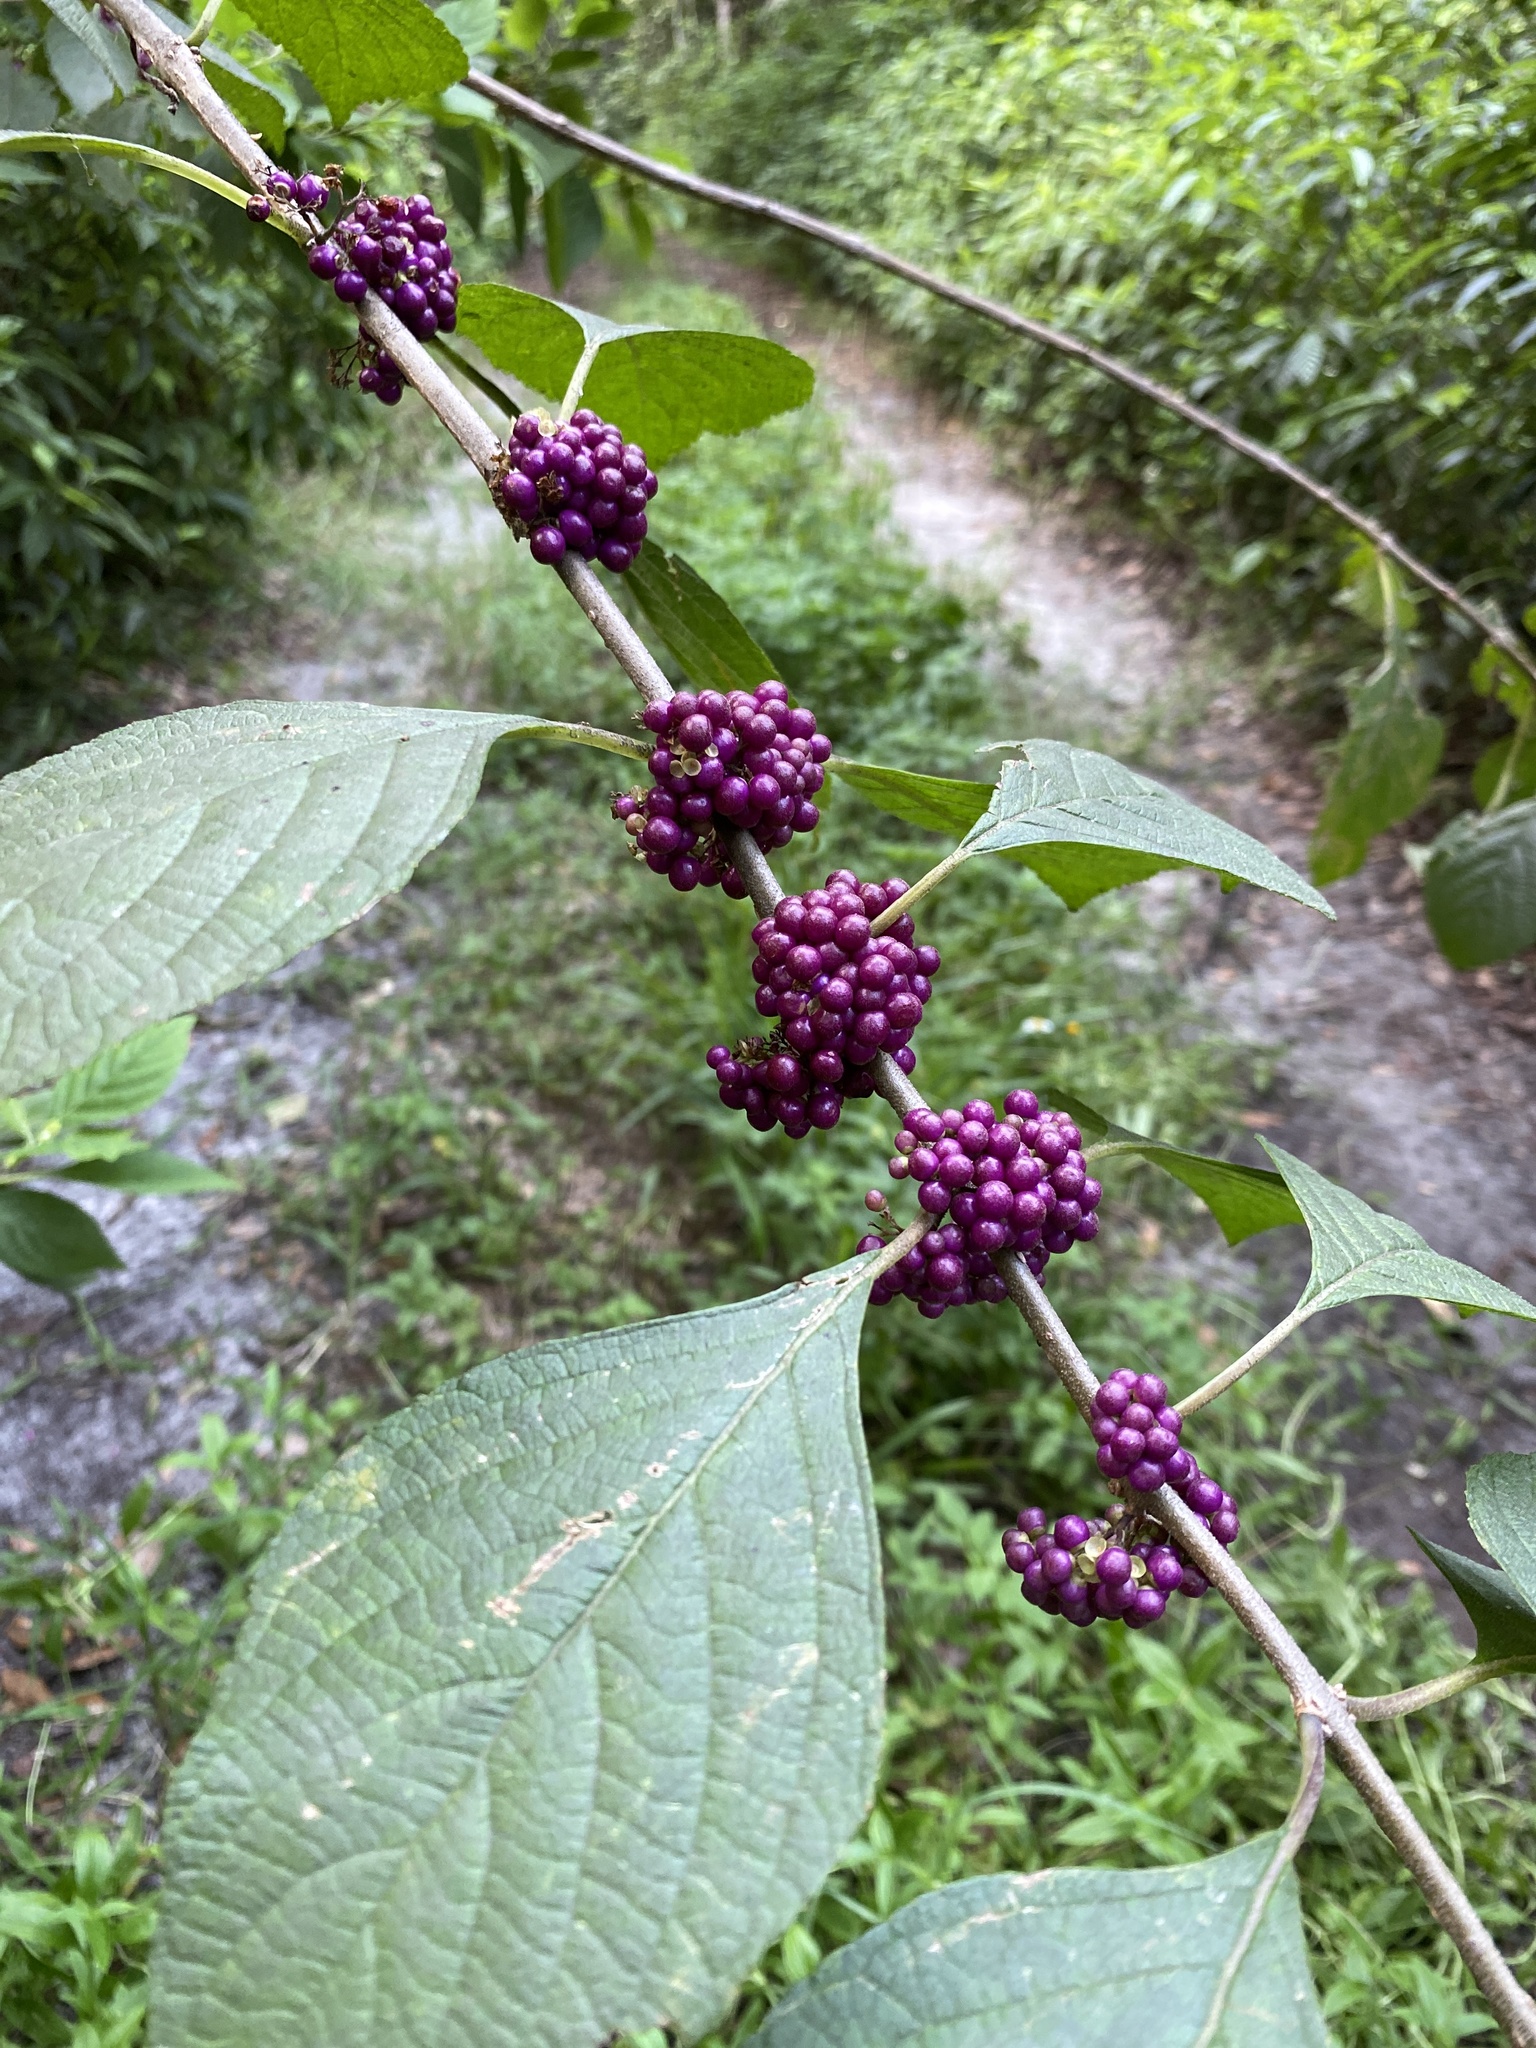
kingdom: Plantae
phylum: Tracheophyta
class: Magnoliopsida
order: Lamiales
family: Lamiaceae
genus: Callicarpa
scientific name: Callicarpa americana
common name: American beautyberry
